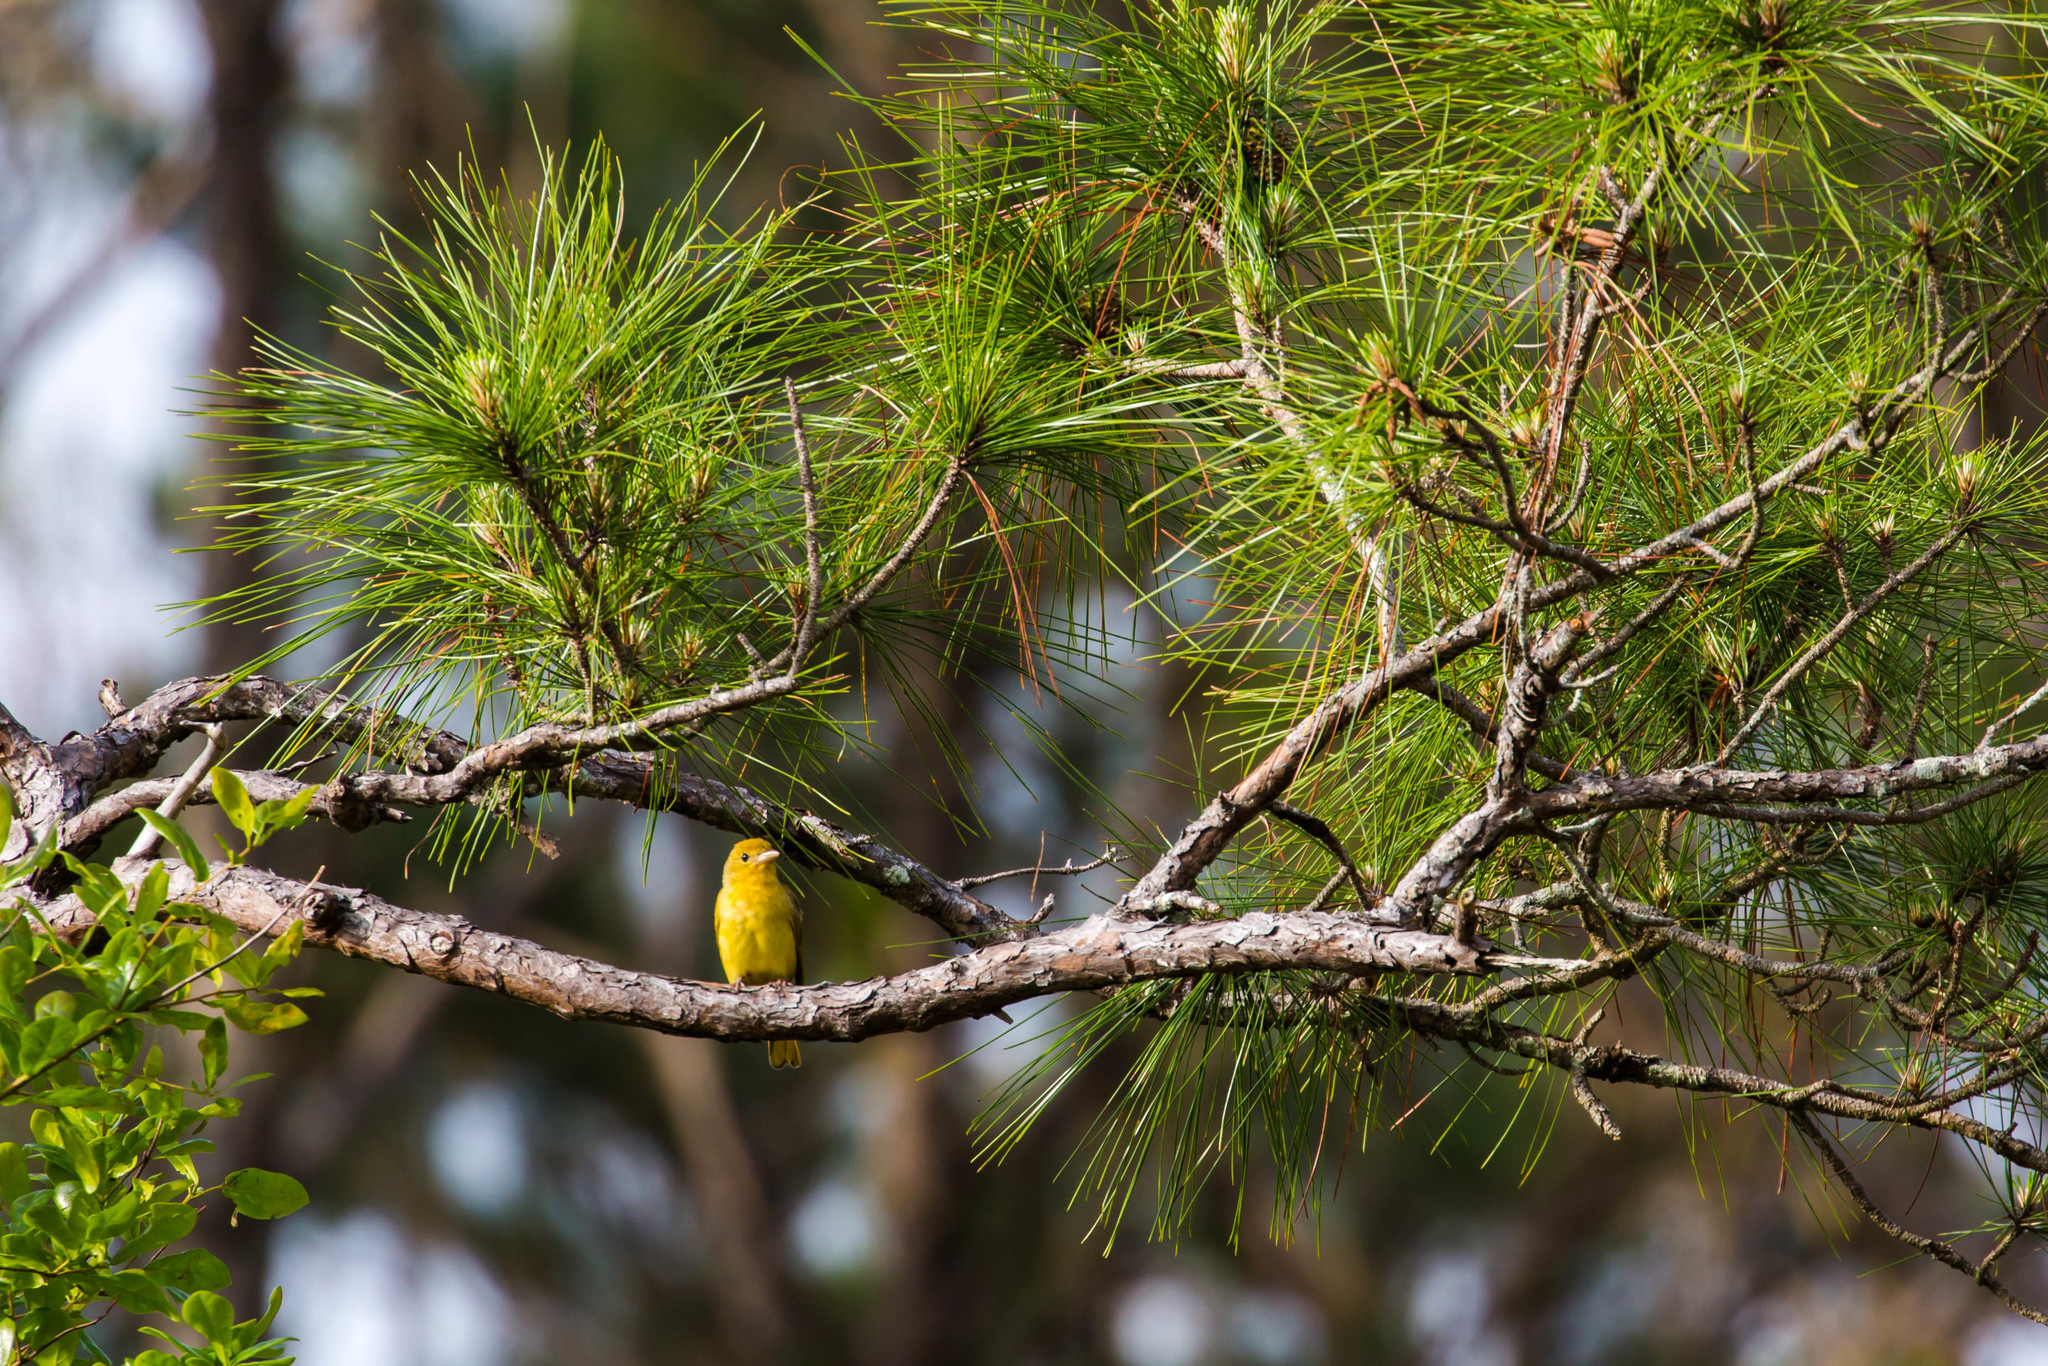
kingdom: Animalia
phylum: Chordata
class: Aves
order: Passeriformes
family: Cardinalidae
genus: Piranga
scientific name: Piranga rubra
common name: Summer tanager
